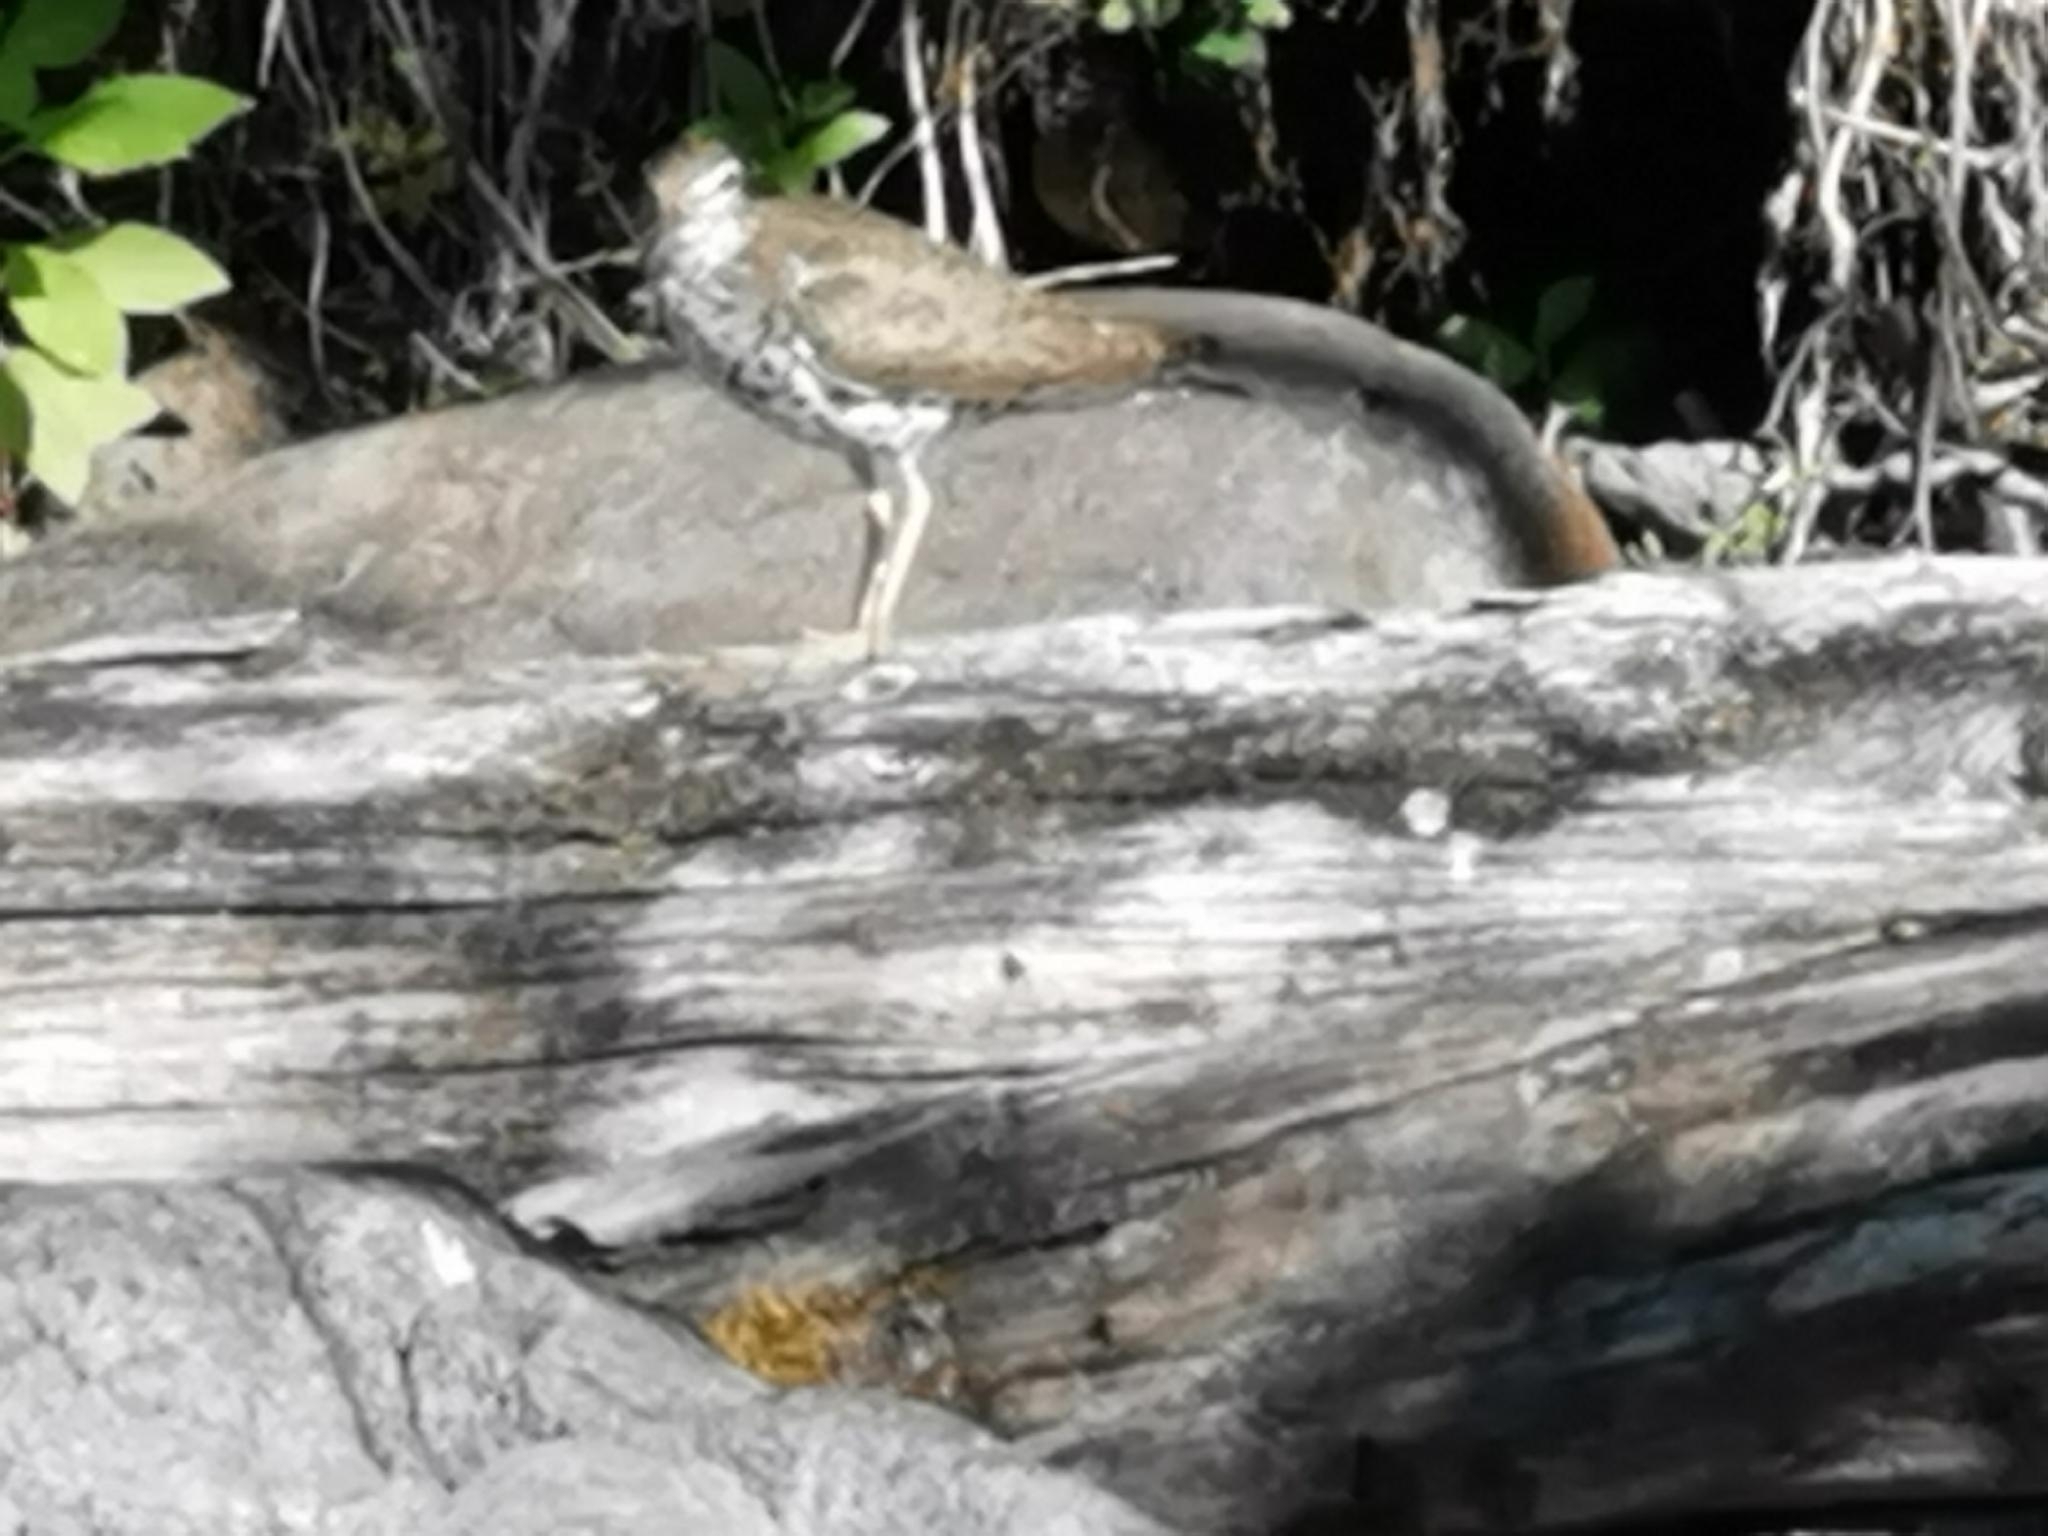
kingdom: Animalia
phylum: Chordata
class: Aves
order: Charadriiformes
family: Scolopacidae
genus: Actitis
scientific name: Actitis macularius
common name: Spotted sandpiper
